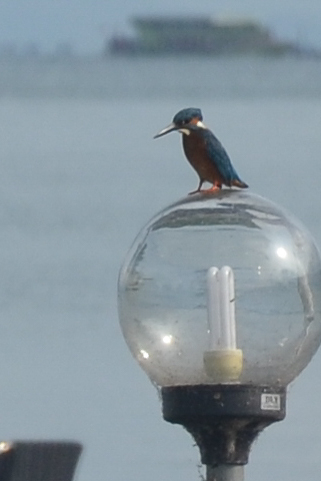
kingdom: Animalia
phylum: Chordata
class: Aves
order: Coraciiformes
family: Alcedinidae
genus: Alcedo
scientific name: Alcedo atthis
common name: Common kingfisher
